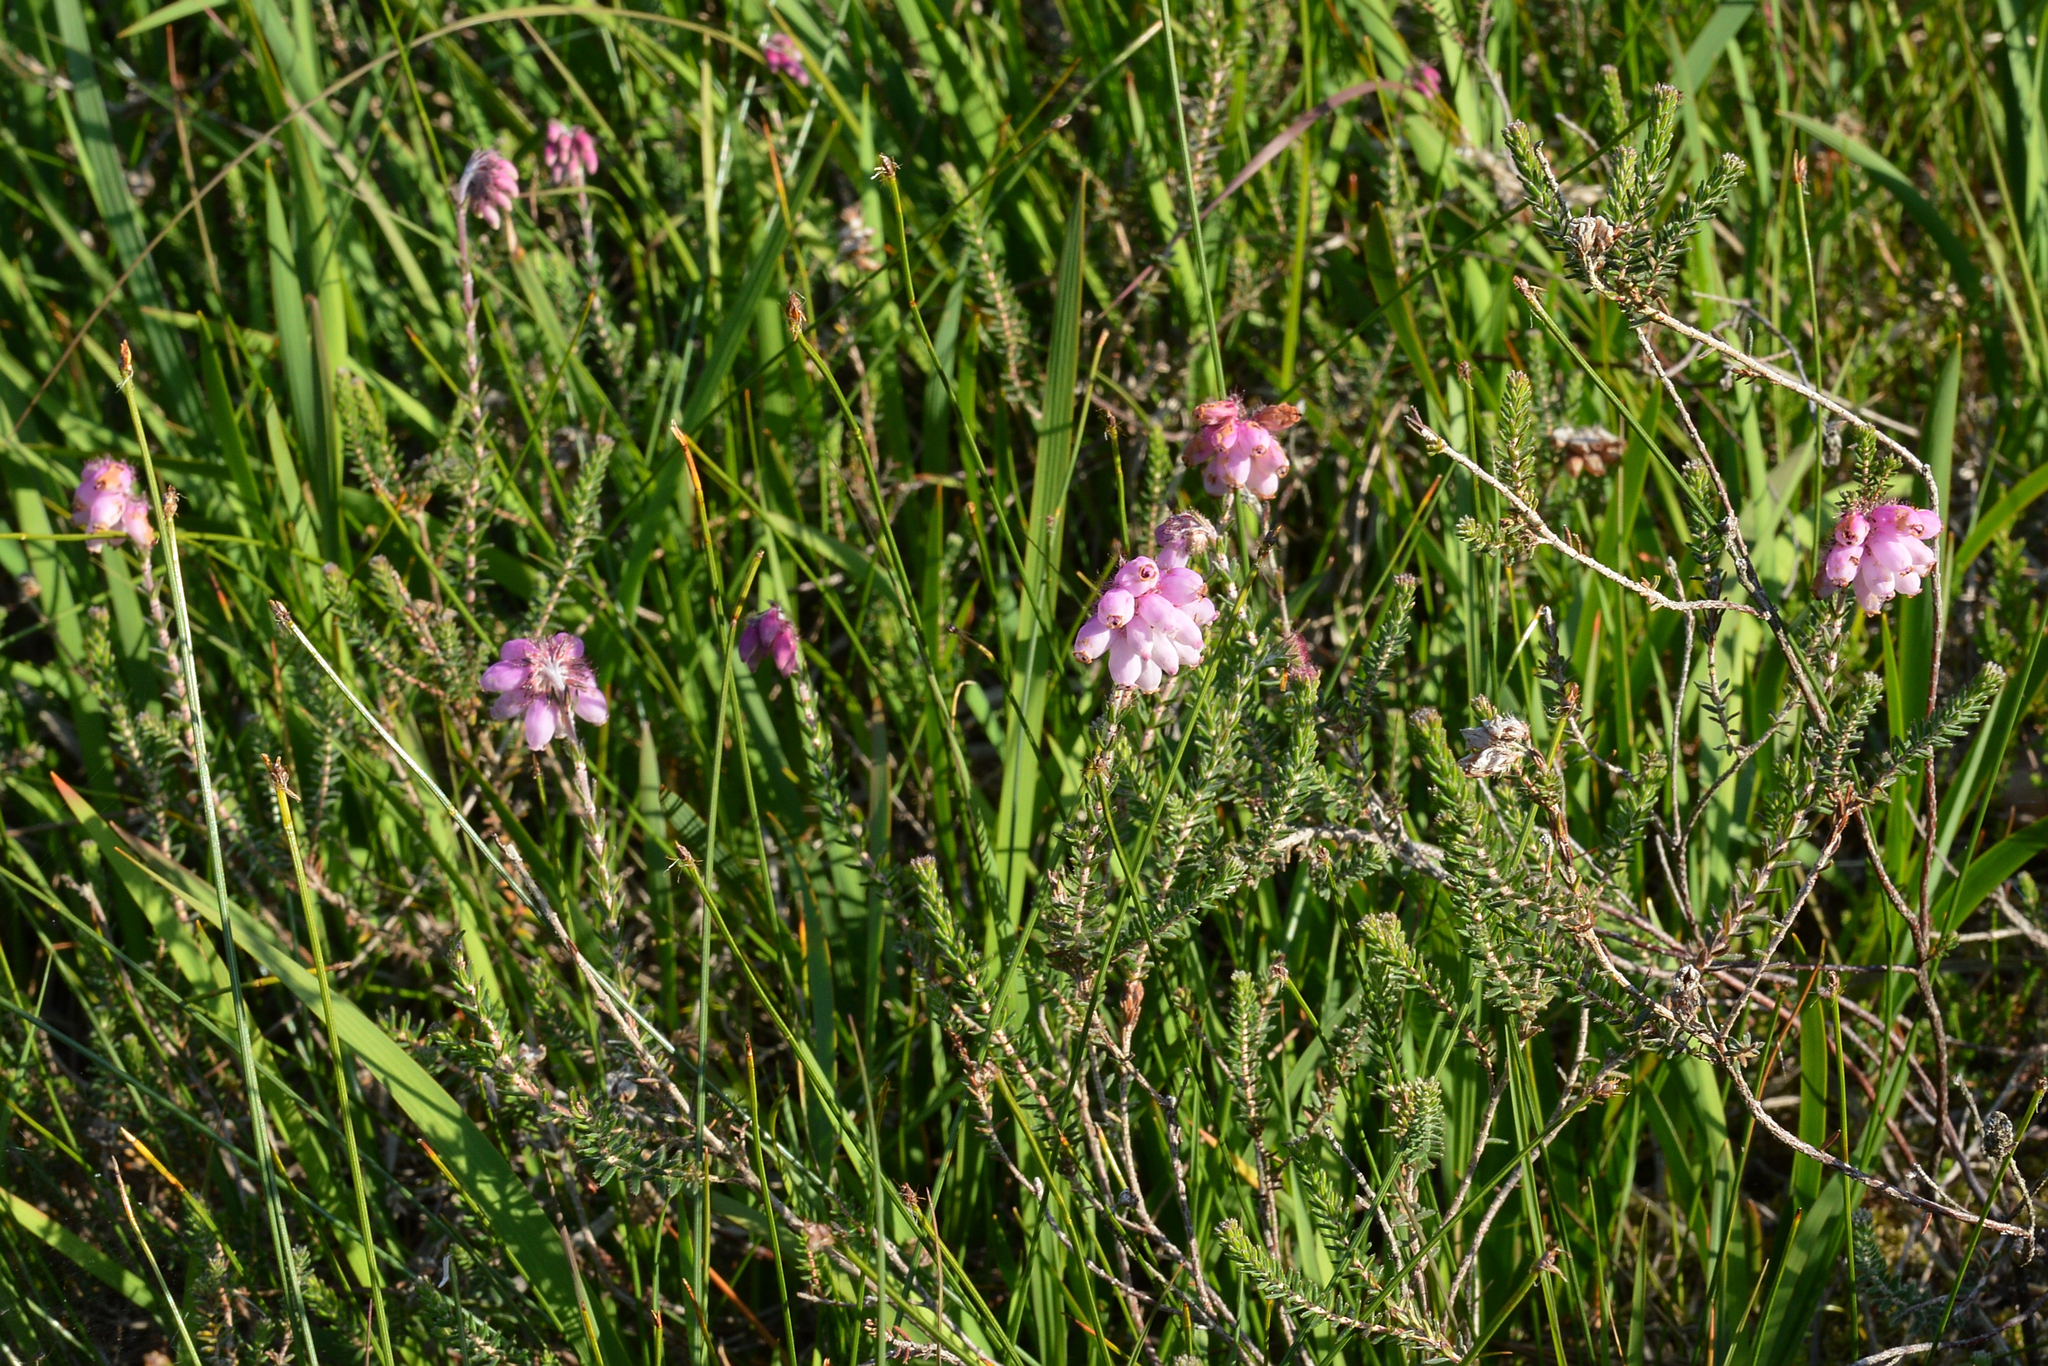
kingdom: Plantae
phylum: Tracheophyta
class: Magnoliopsida
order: Ericales
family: Ericaceae
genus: Erica
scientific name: Erica tetralix
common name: Cross-leaved heath
